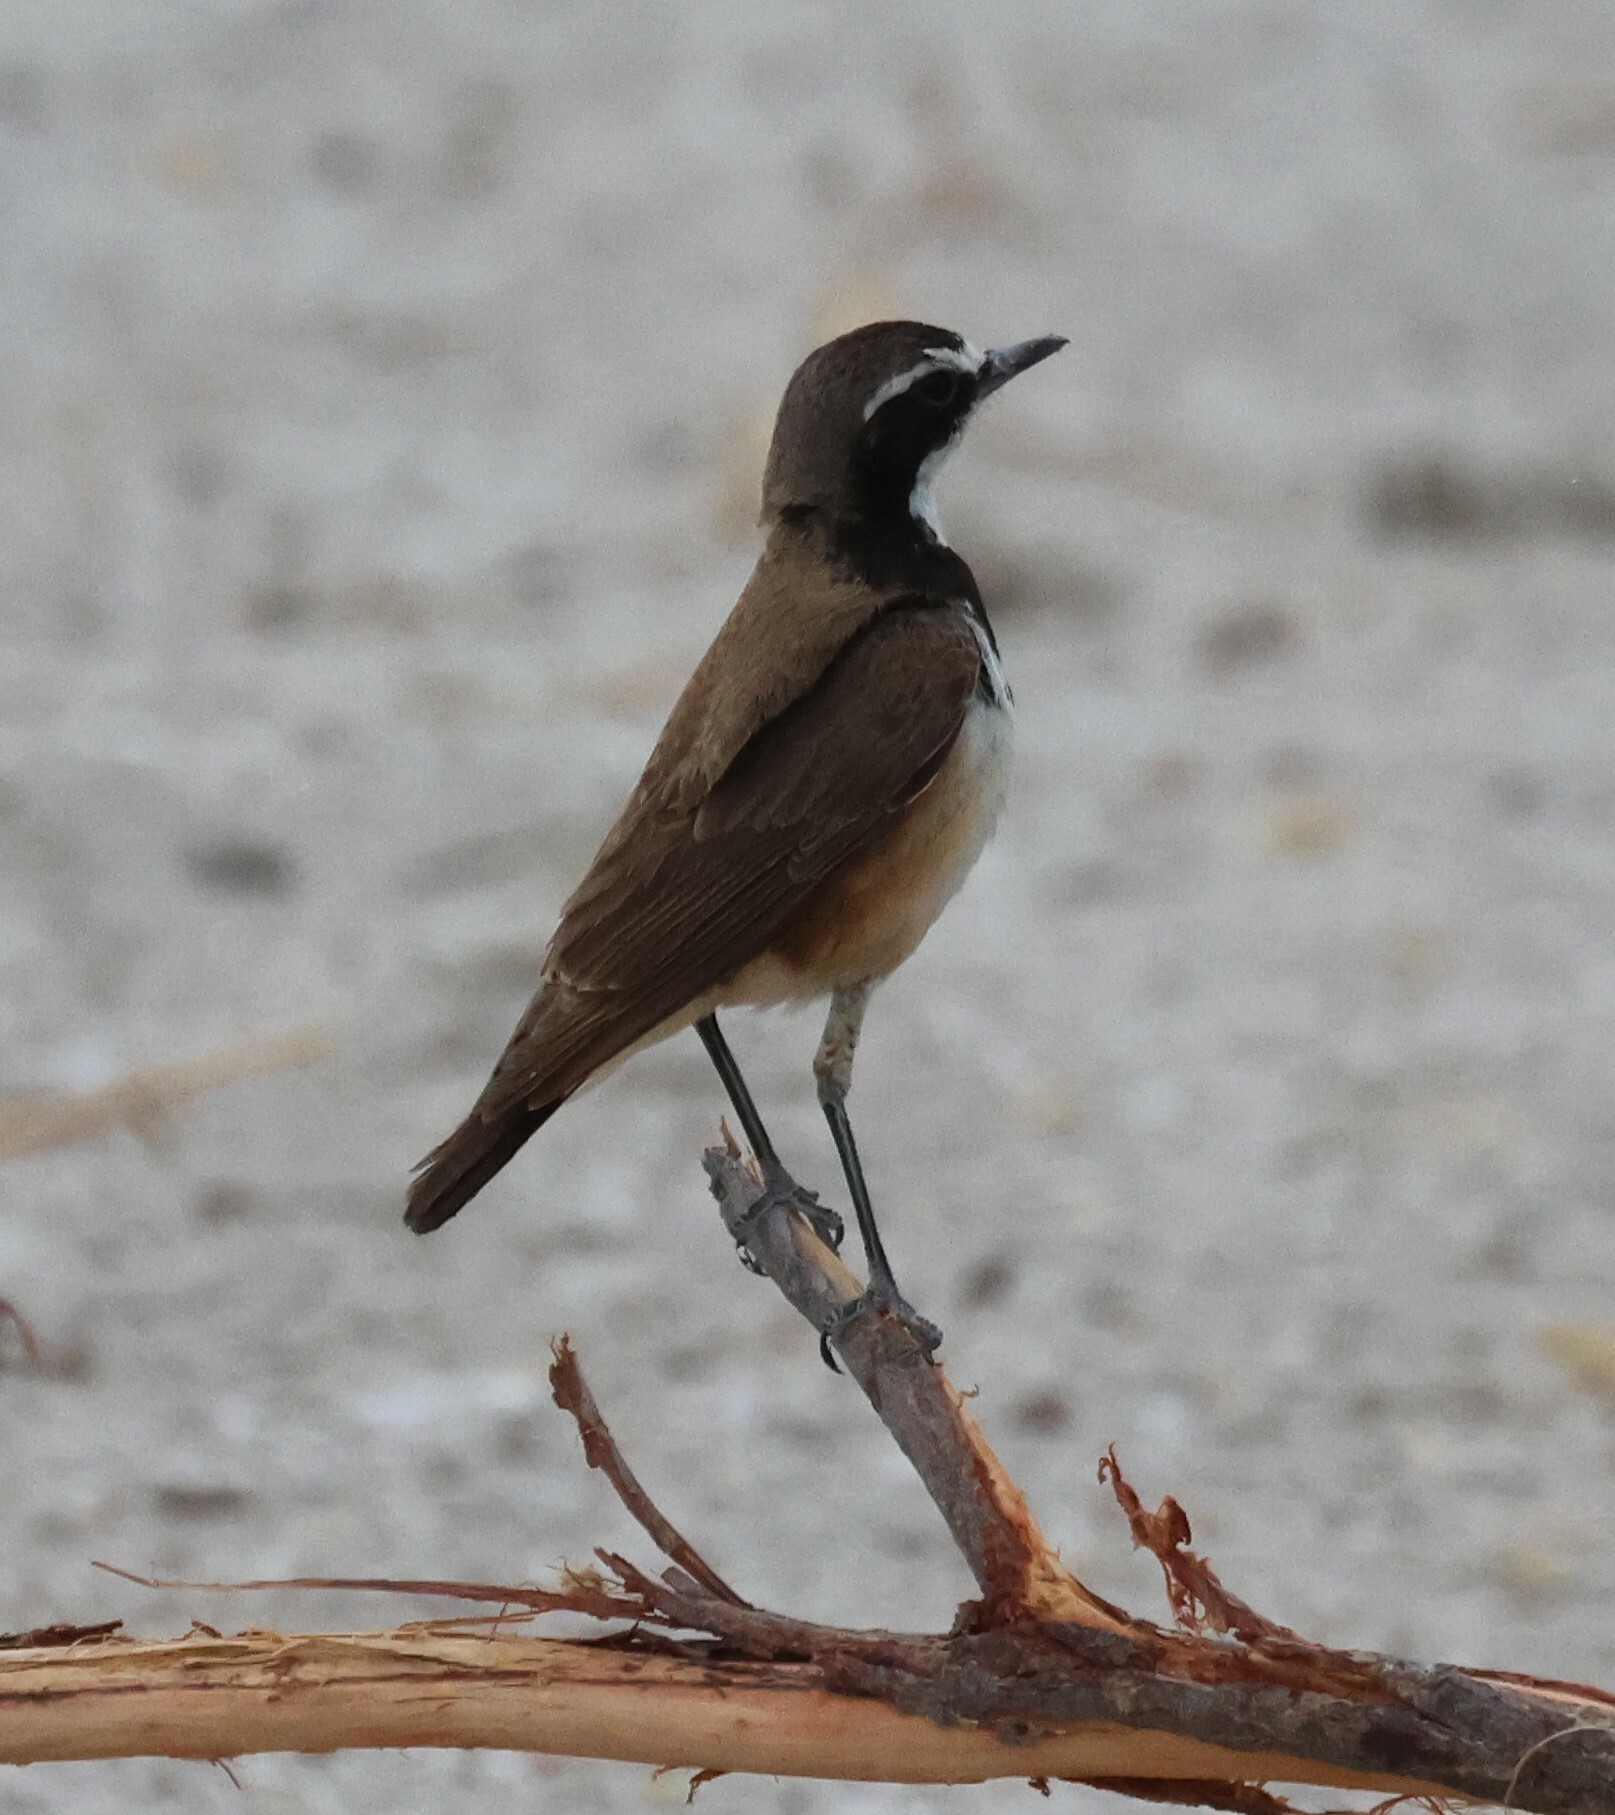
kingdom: Animalia
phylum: Chordata
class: Aves
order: Passeriformes
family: Muscicapidae
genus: Oenanthe
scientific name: Oenanthe pileata
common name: Capped wheatear
